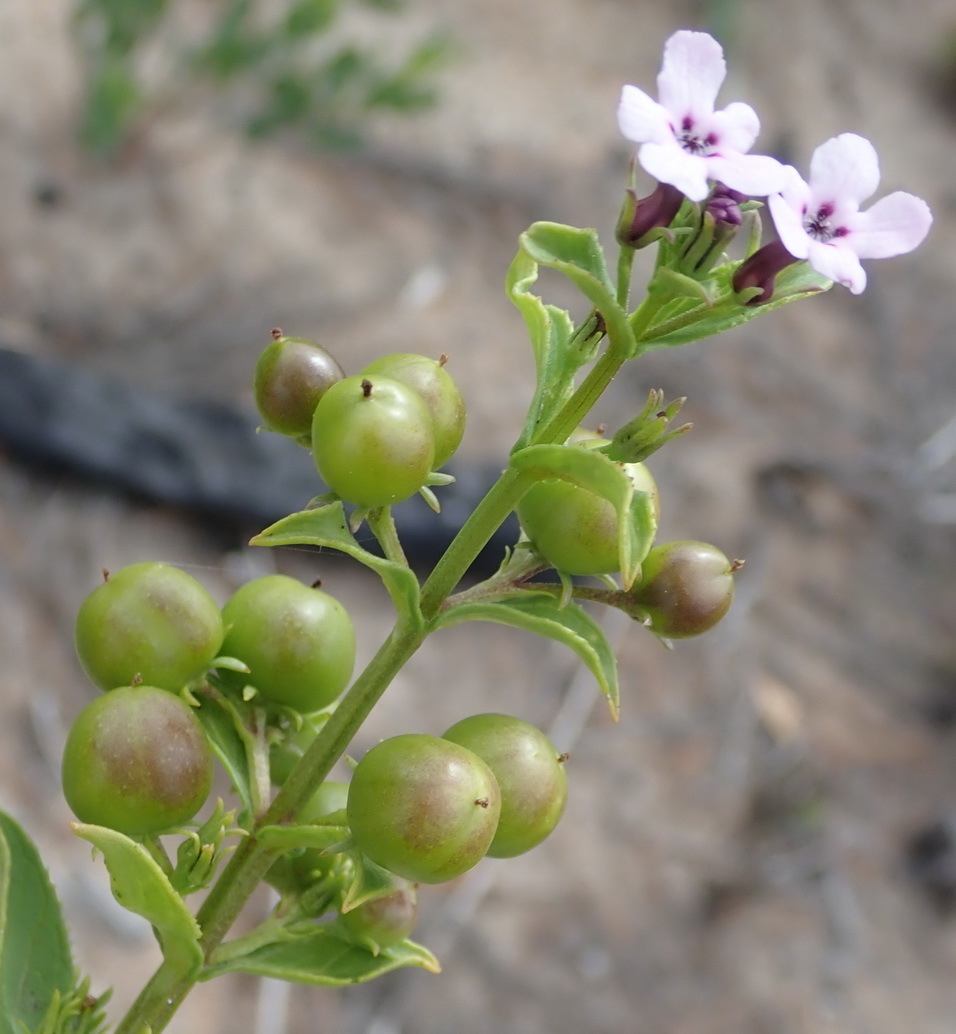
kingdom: Plantae
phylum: Tracheophyta
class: Magnoliopsida
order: Lamiales
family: Scrophulariaceae
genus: Teedia
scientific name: Teedia lucida
